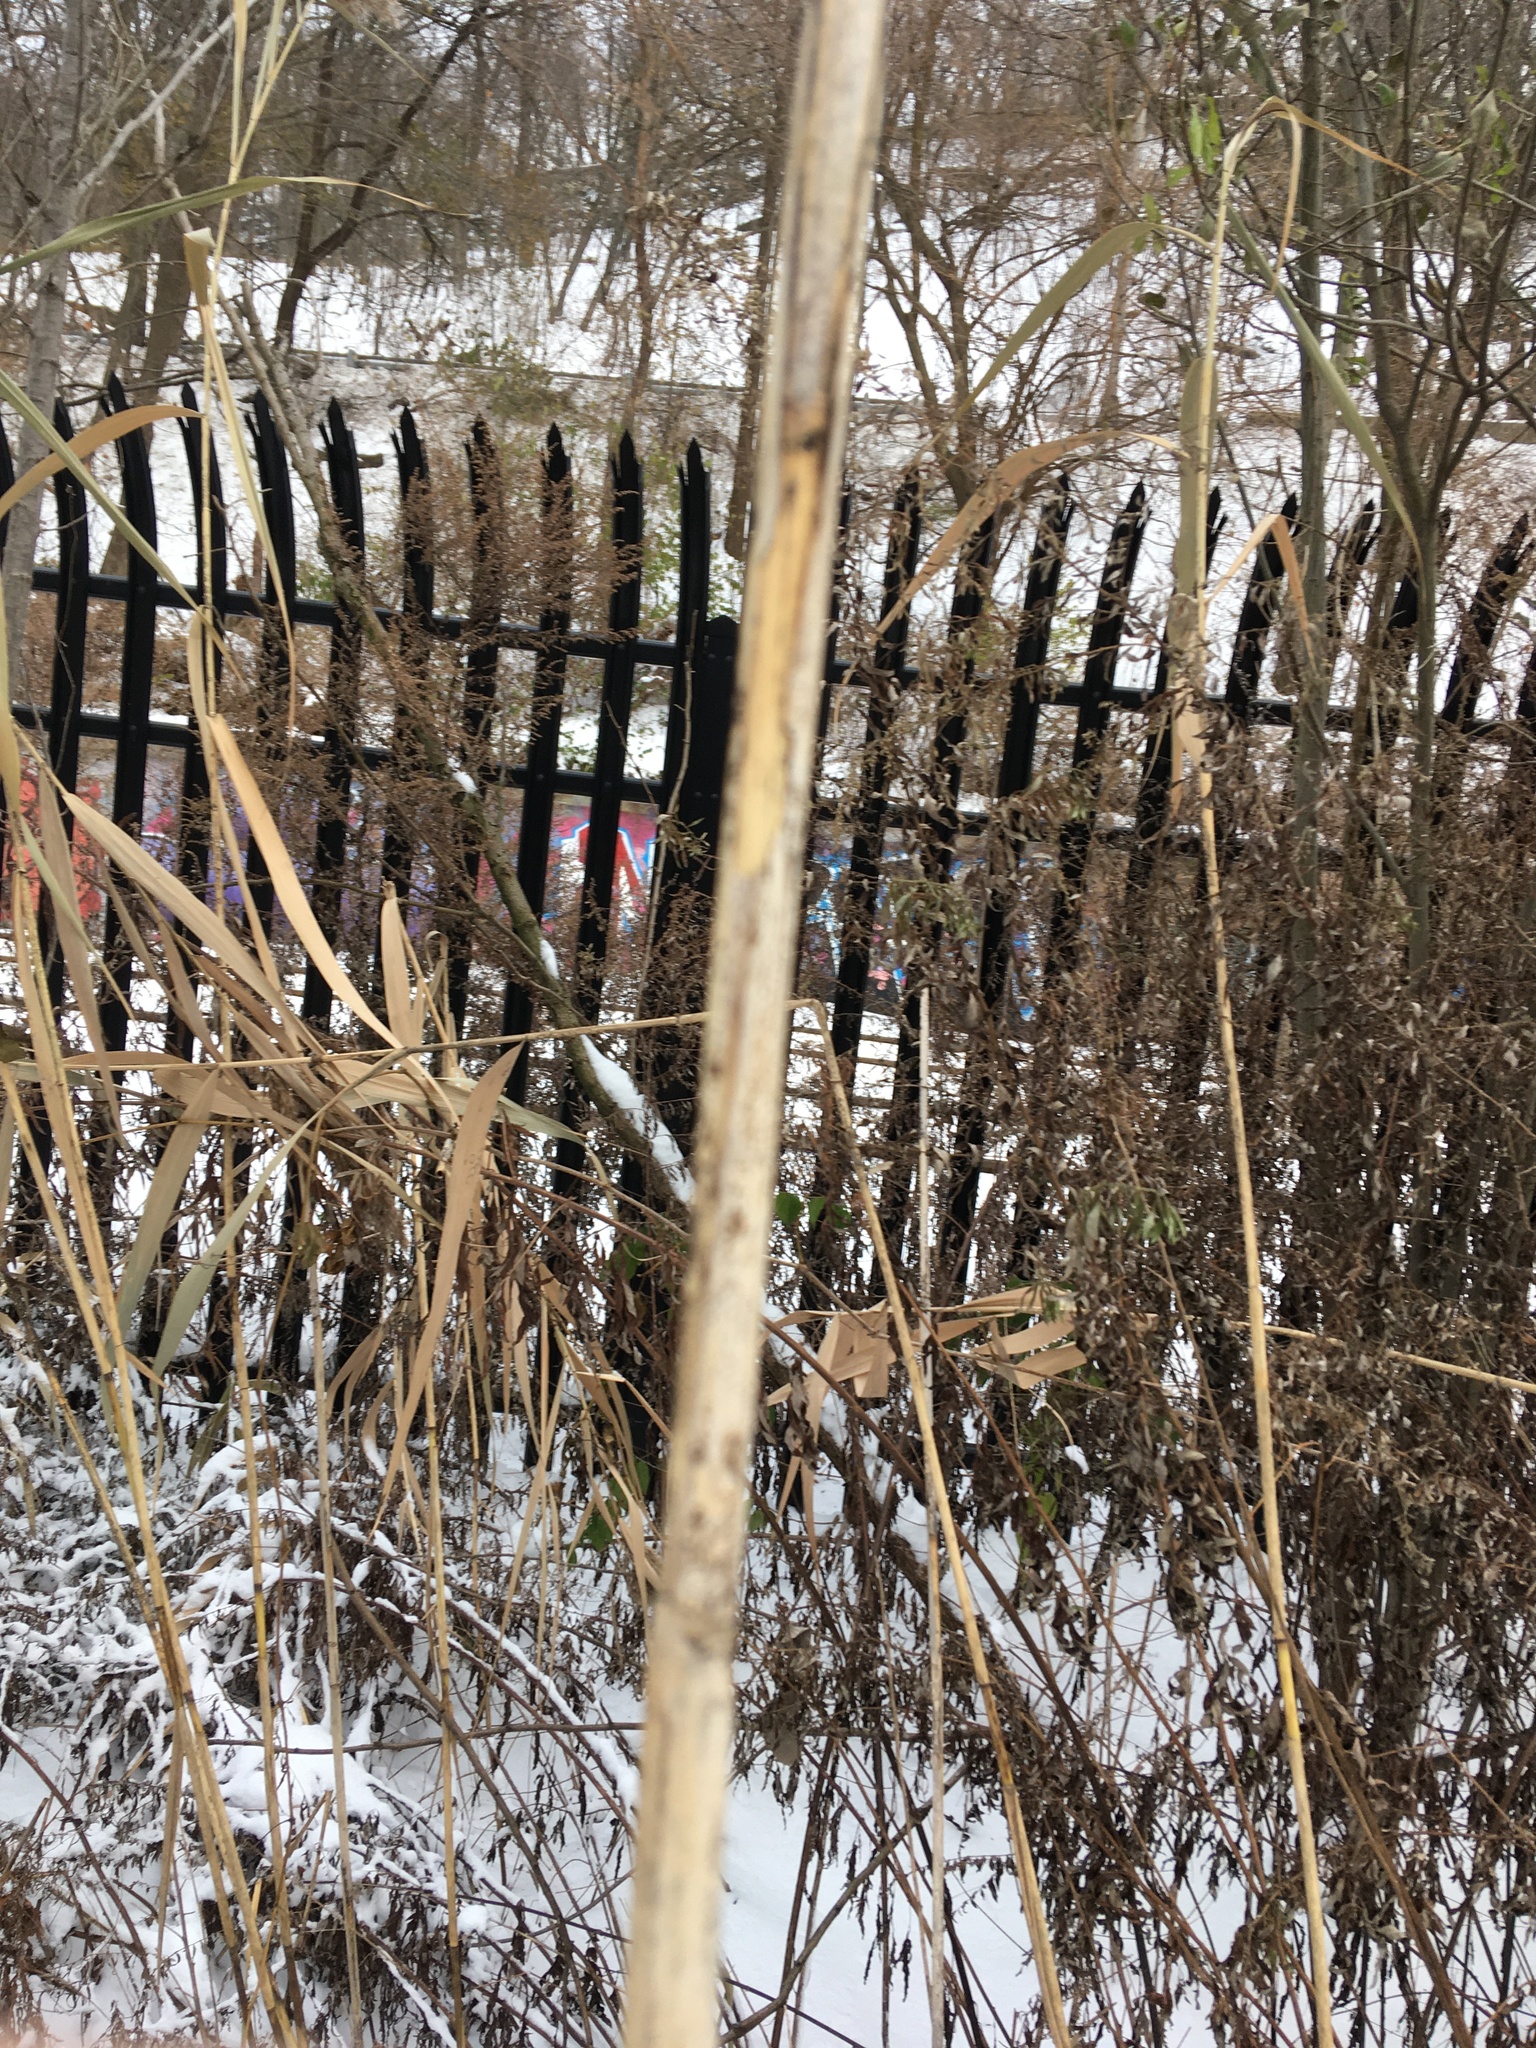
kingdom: Plantae
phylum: Tracheophyta
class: Liliopsida
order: Poales
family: Poaceae
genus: Phragmites
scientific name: Phragmites australis
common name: Common reed
